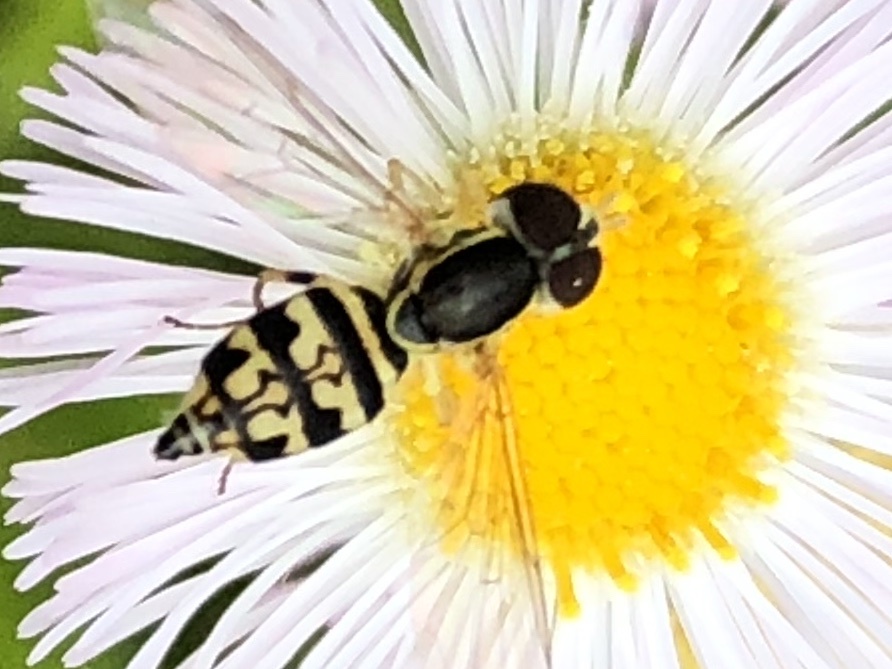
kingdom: Animalia
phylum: Arthropoda
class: Insecta
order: Diptera
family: Syrphidae
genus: Toxomerus
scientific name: Toxomerus geminatus
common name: Eastern calligrapher
